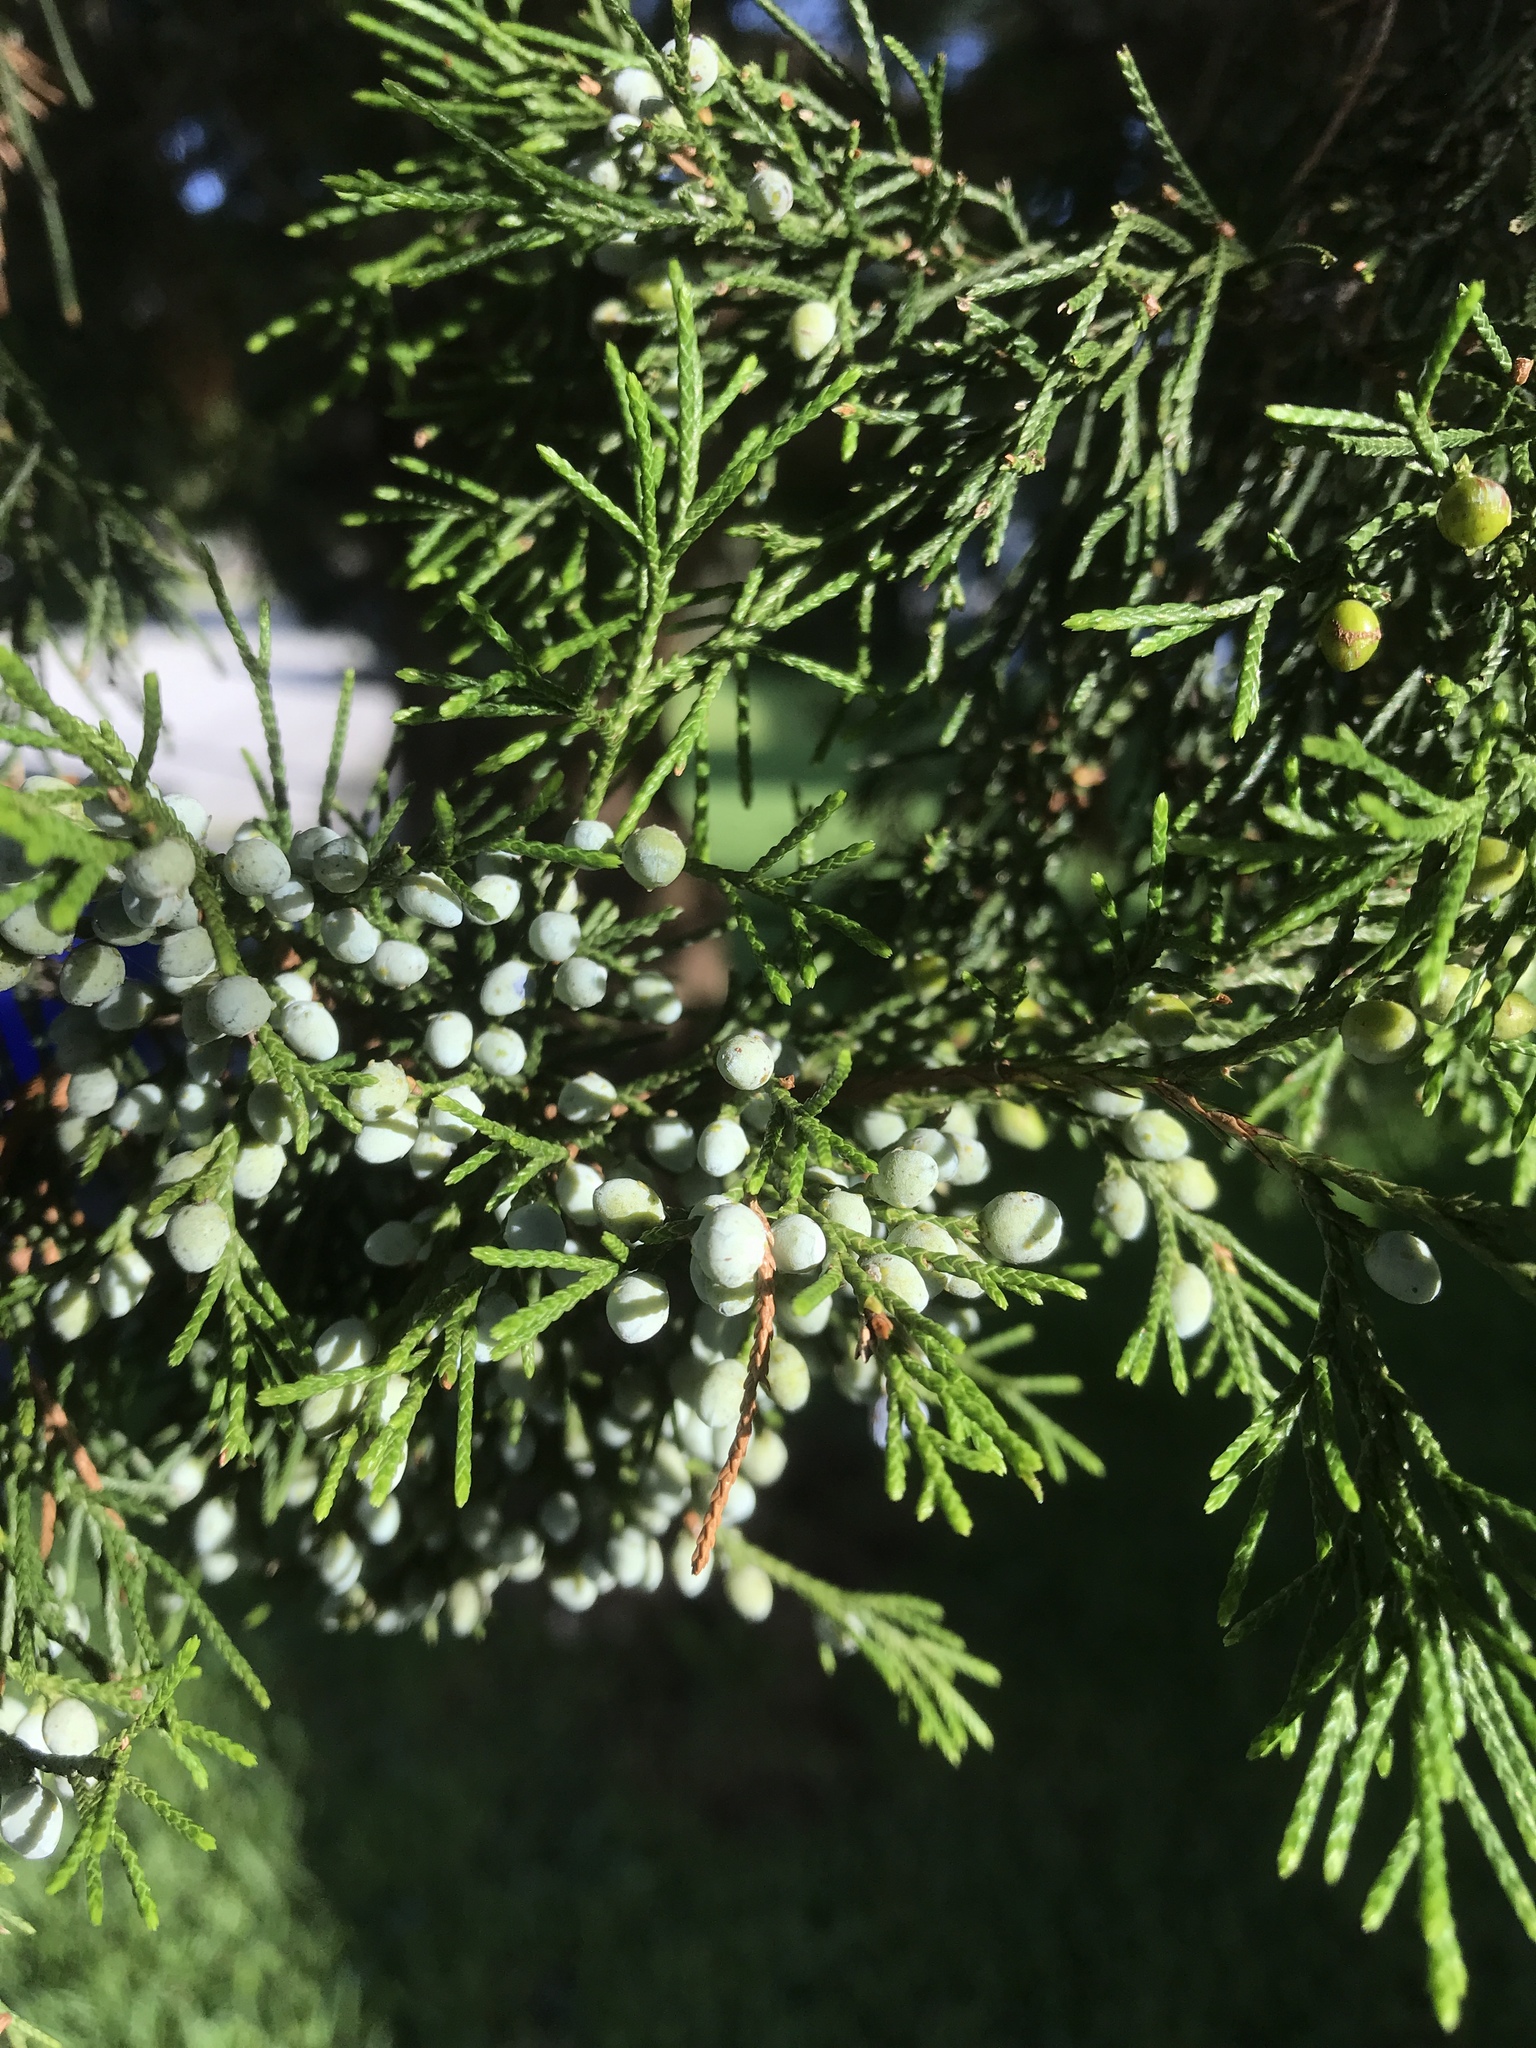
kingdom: Plantae
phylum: Tracheophyta
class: Pinopsida
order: Pinales
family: Cupressaceae
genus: Juniperus
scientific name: Juniperus virginiana
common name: Red juniper
